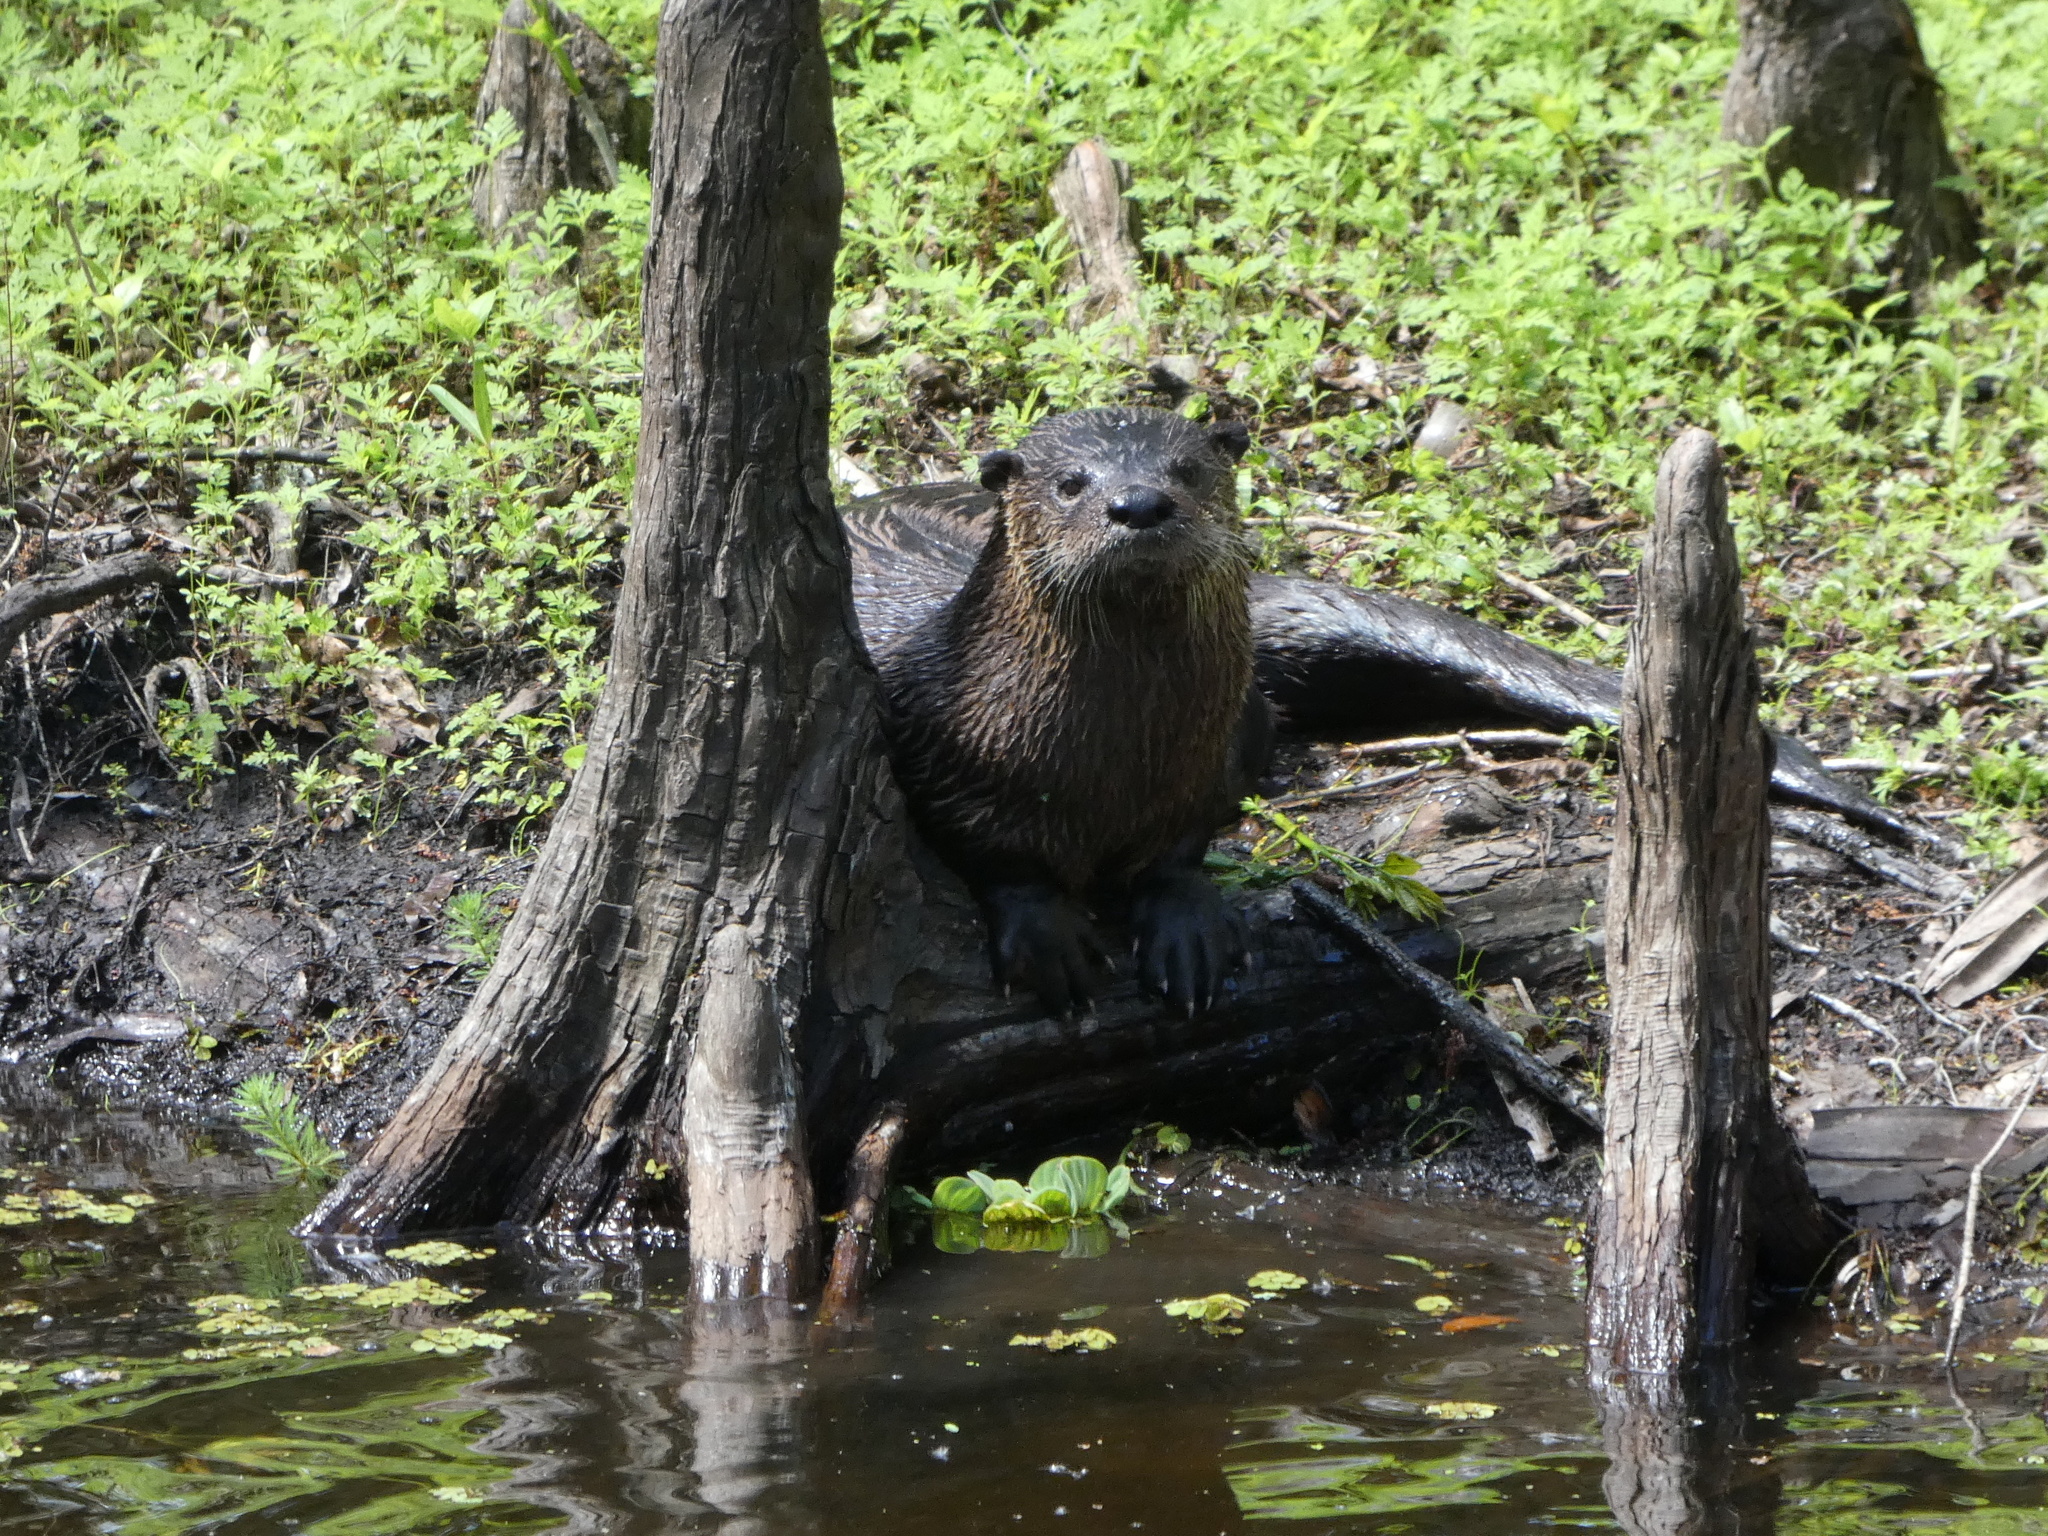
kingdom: Animalia
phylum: Chordata
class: Mammalia
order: Carnivora
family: Mustelidae
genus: Lontra
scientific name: Lontra canadensis
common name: North american river otter
